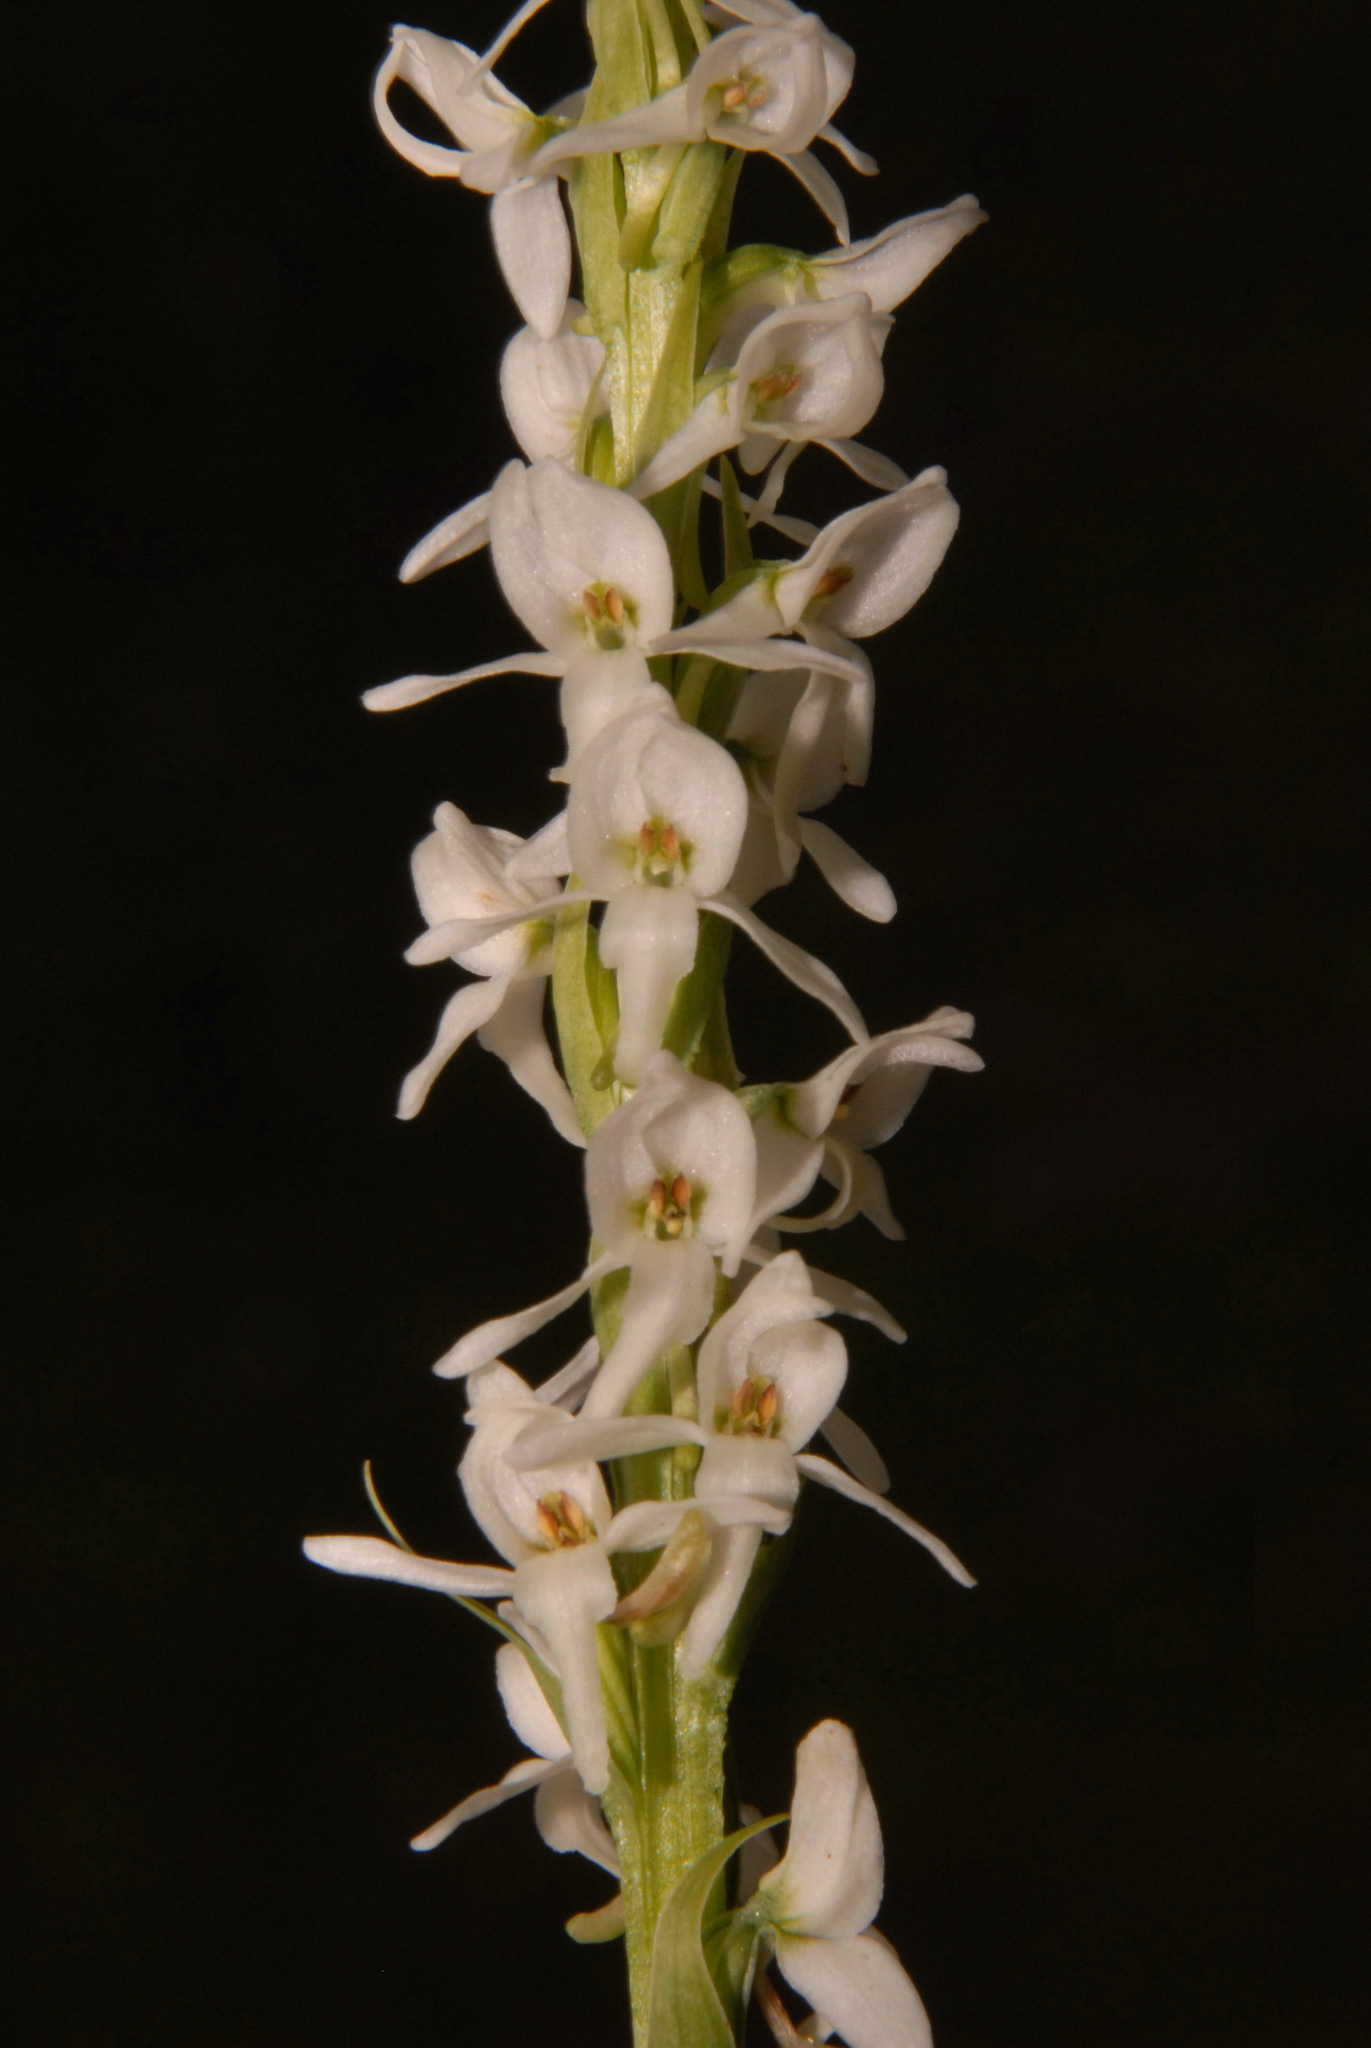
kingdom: Plantae
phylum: Tracheophyta
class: Liliopsida
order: Asparagales
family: Orchidaceae
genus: Platanthera
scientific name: Platanthera dilatata
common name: Bog candles
